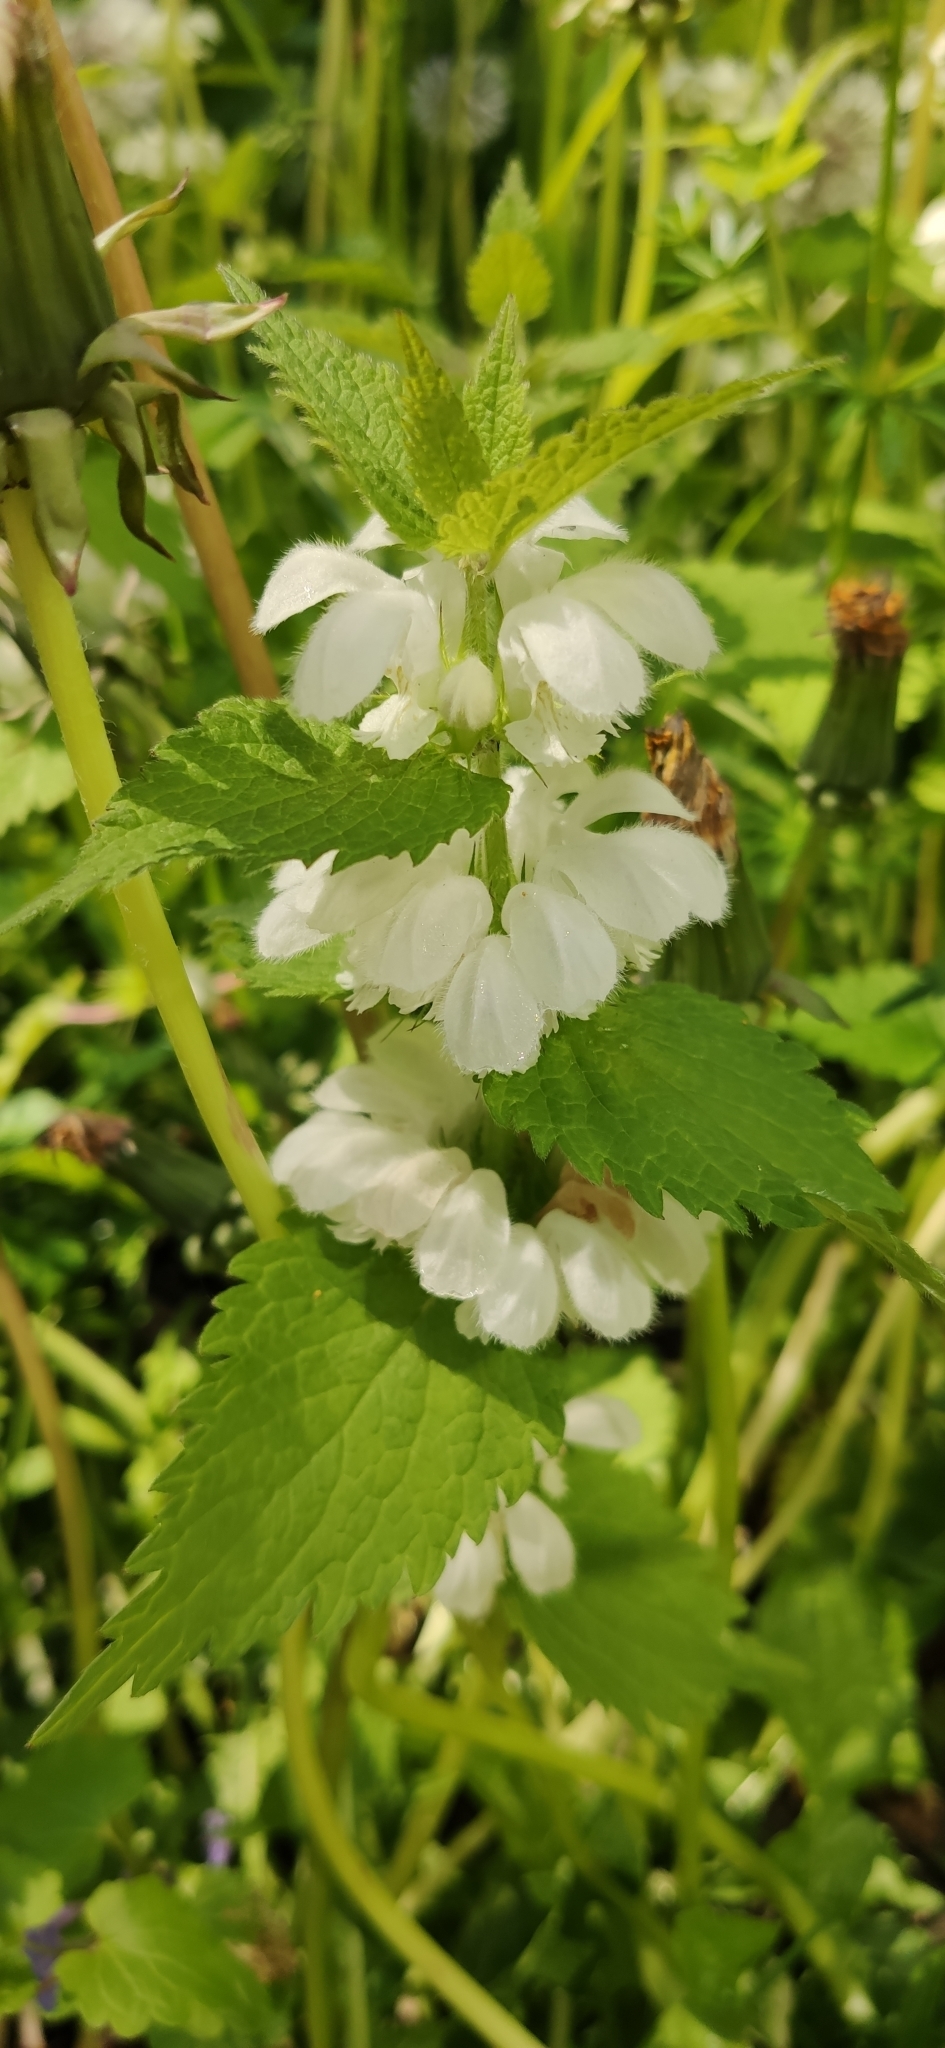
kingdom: Plantae
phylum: Tracheophyta
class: Magnoliopsida
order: Lamiales
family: Lamiaceae
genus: Lamium
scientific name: Lamium album
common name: White dead-nettle
